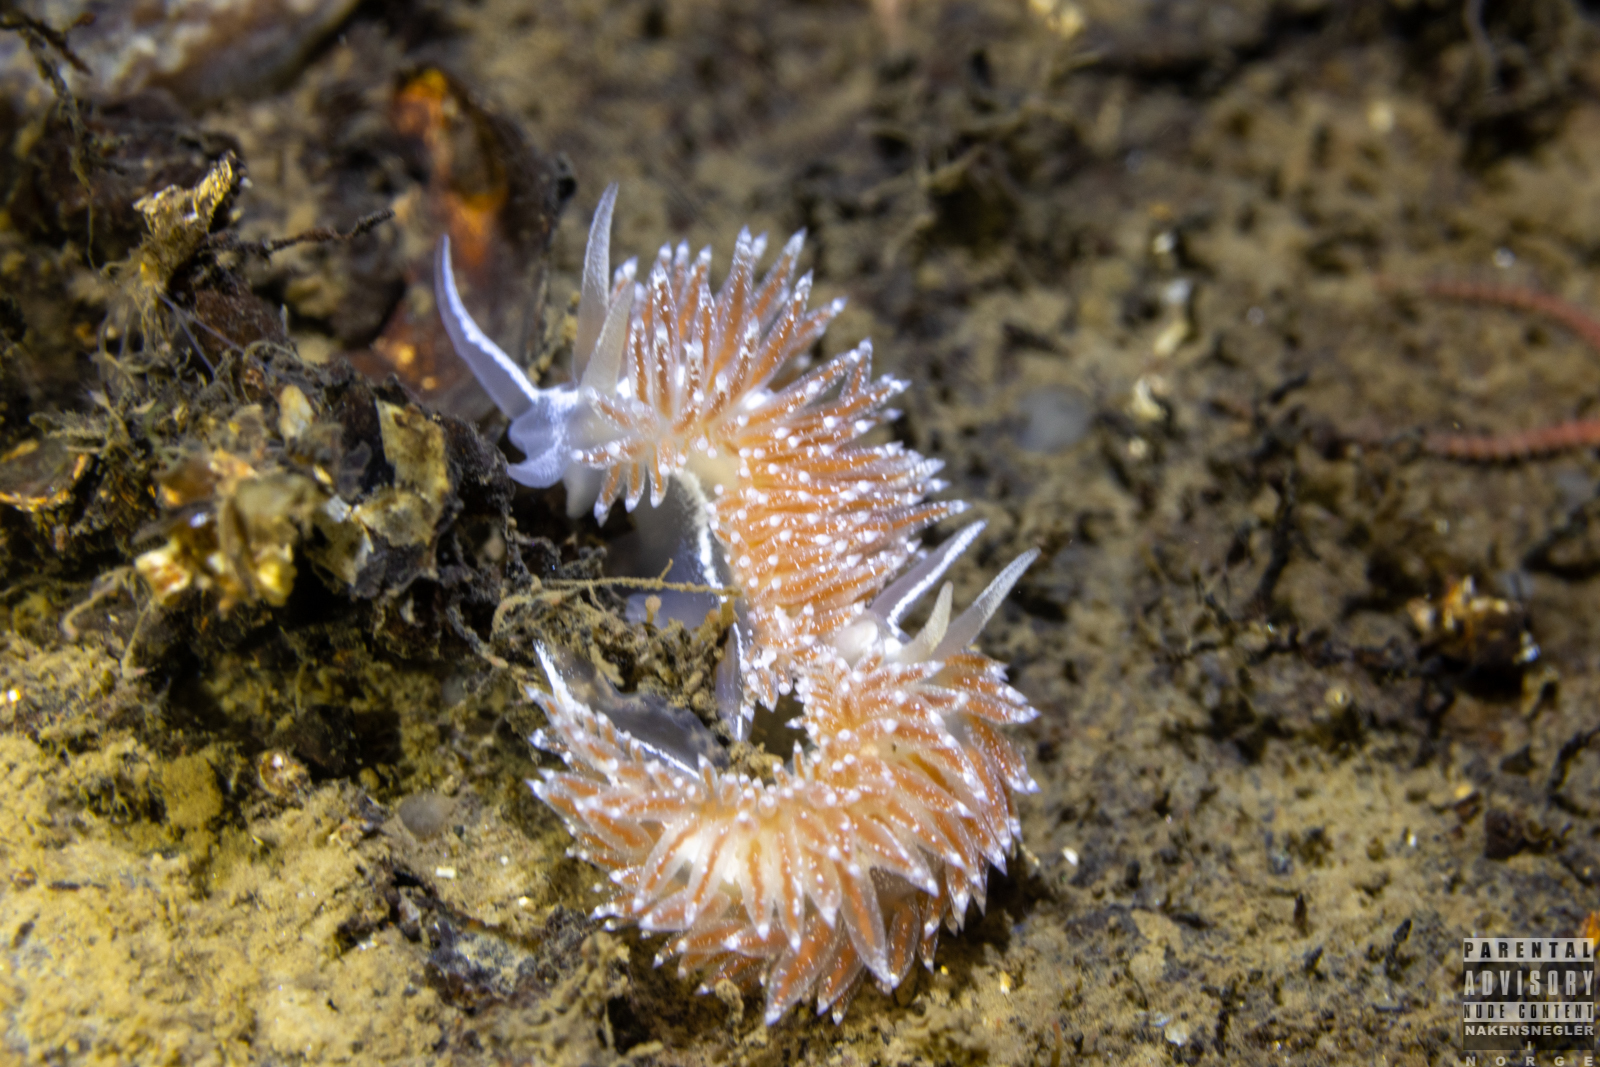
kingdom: Animalia
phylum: Mollusca
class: Gastropoda
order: Nudibranchia
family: Coryphellidae
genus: Coryphella
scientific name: Coryphella monicae
